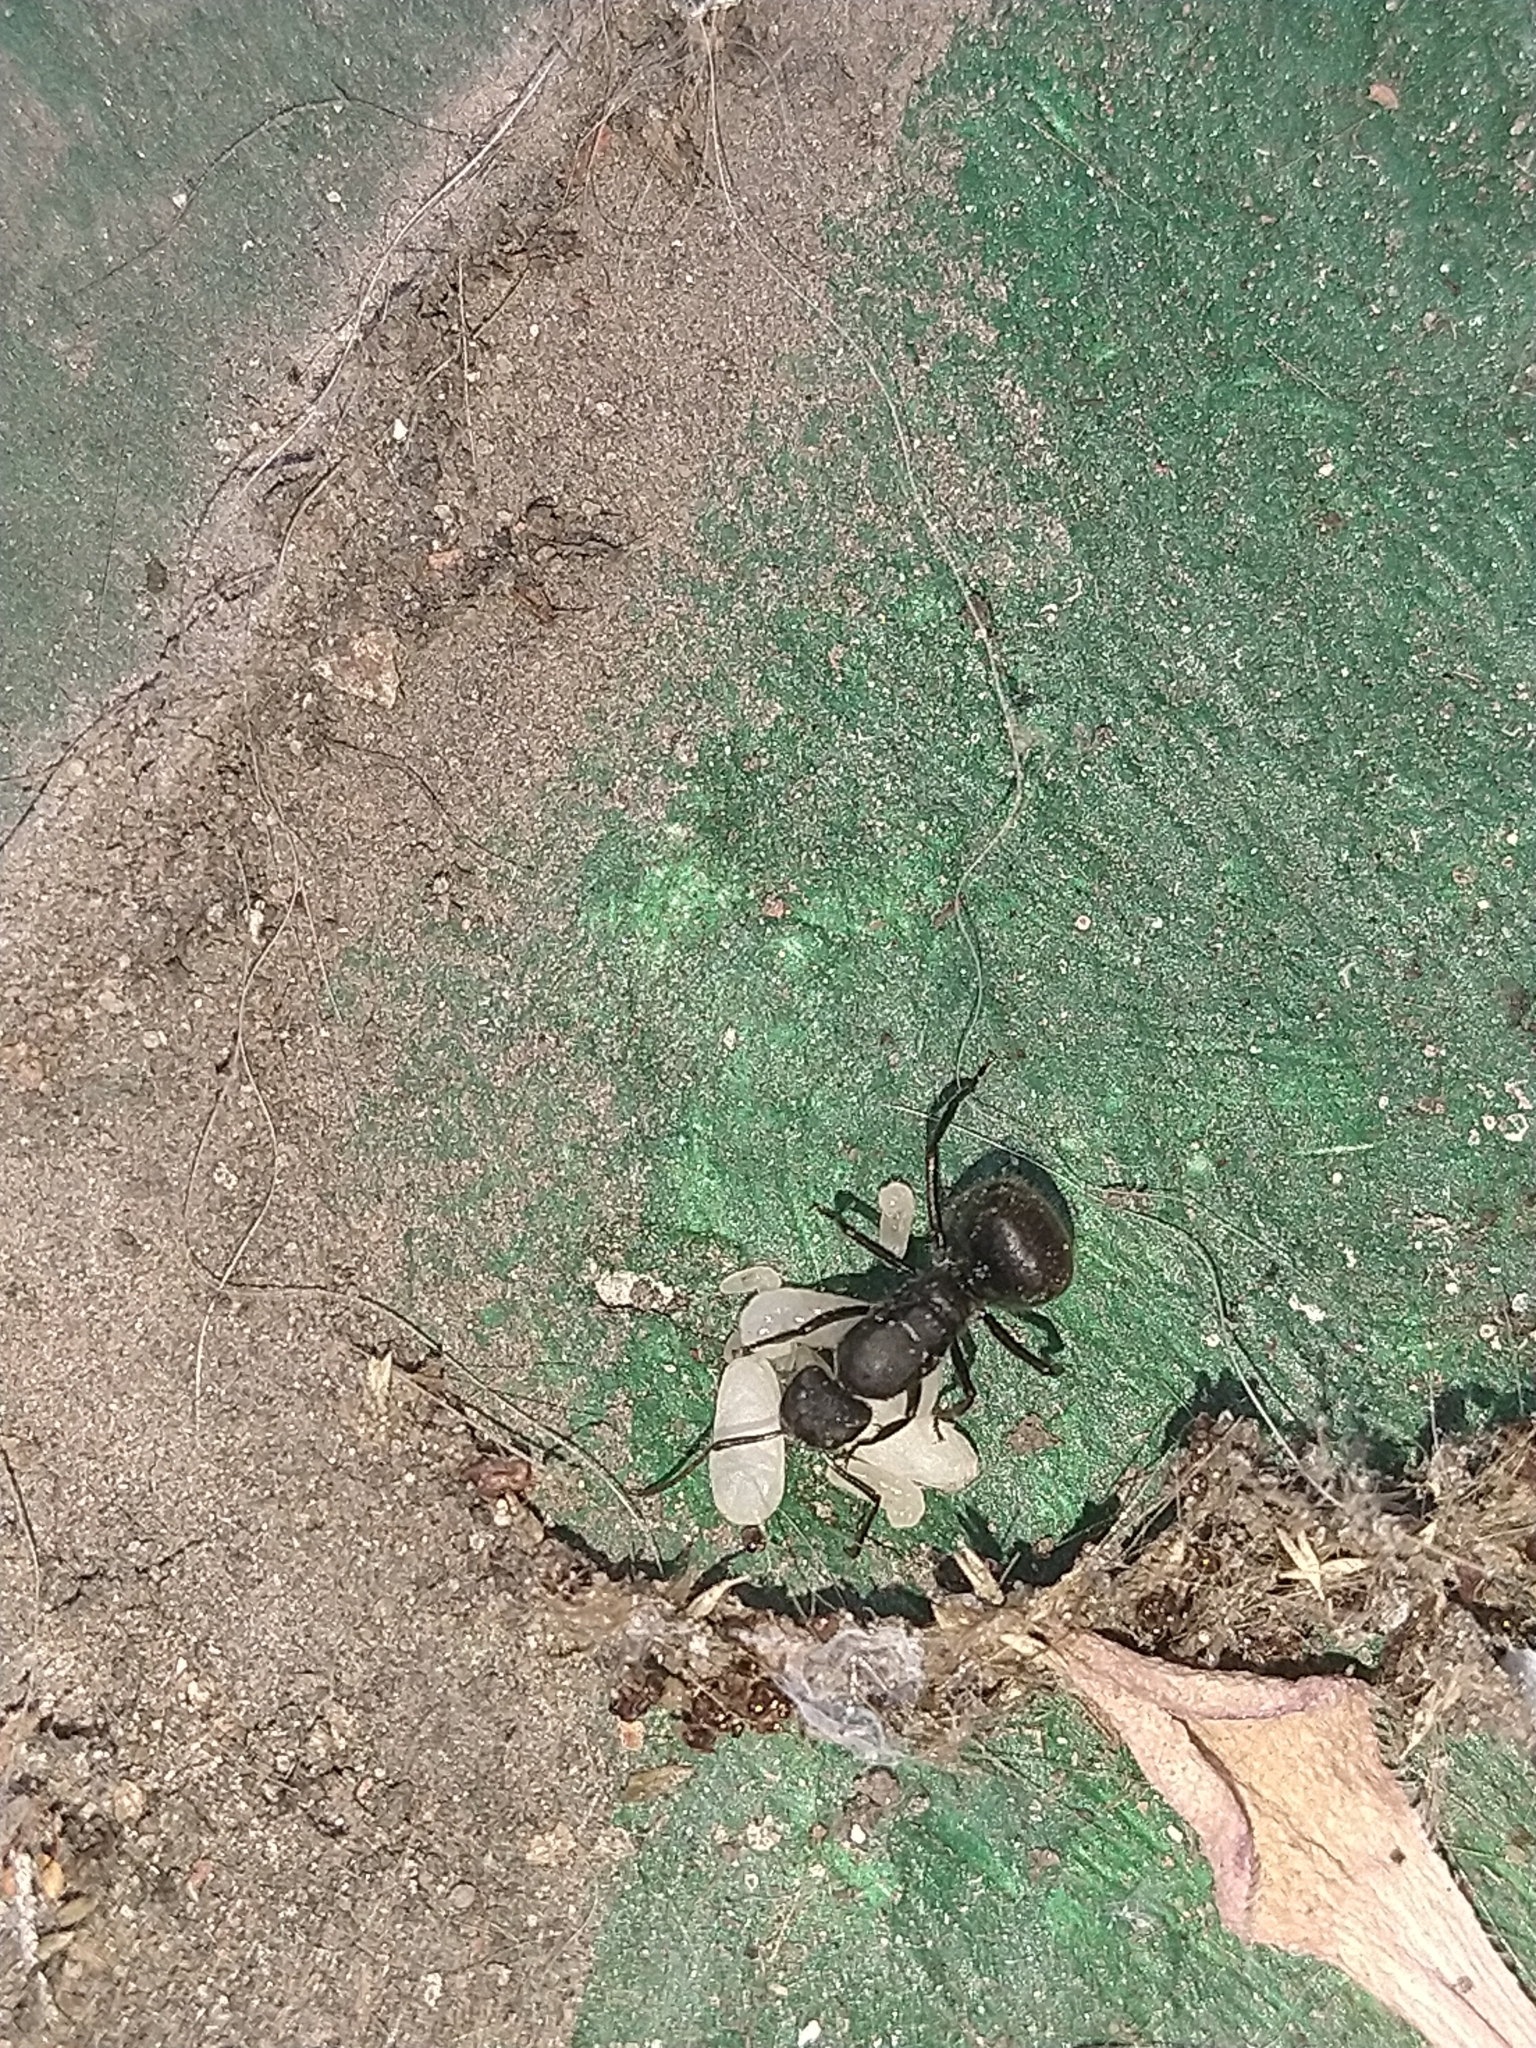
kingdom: Animalia
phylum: Arthropoda
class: Insecta
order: Hymenoptera
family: Formicidae
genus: Camponotus
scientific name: Camponotus mus
